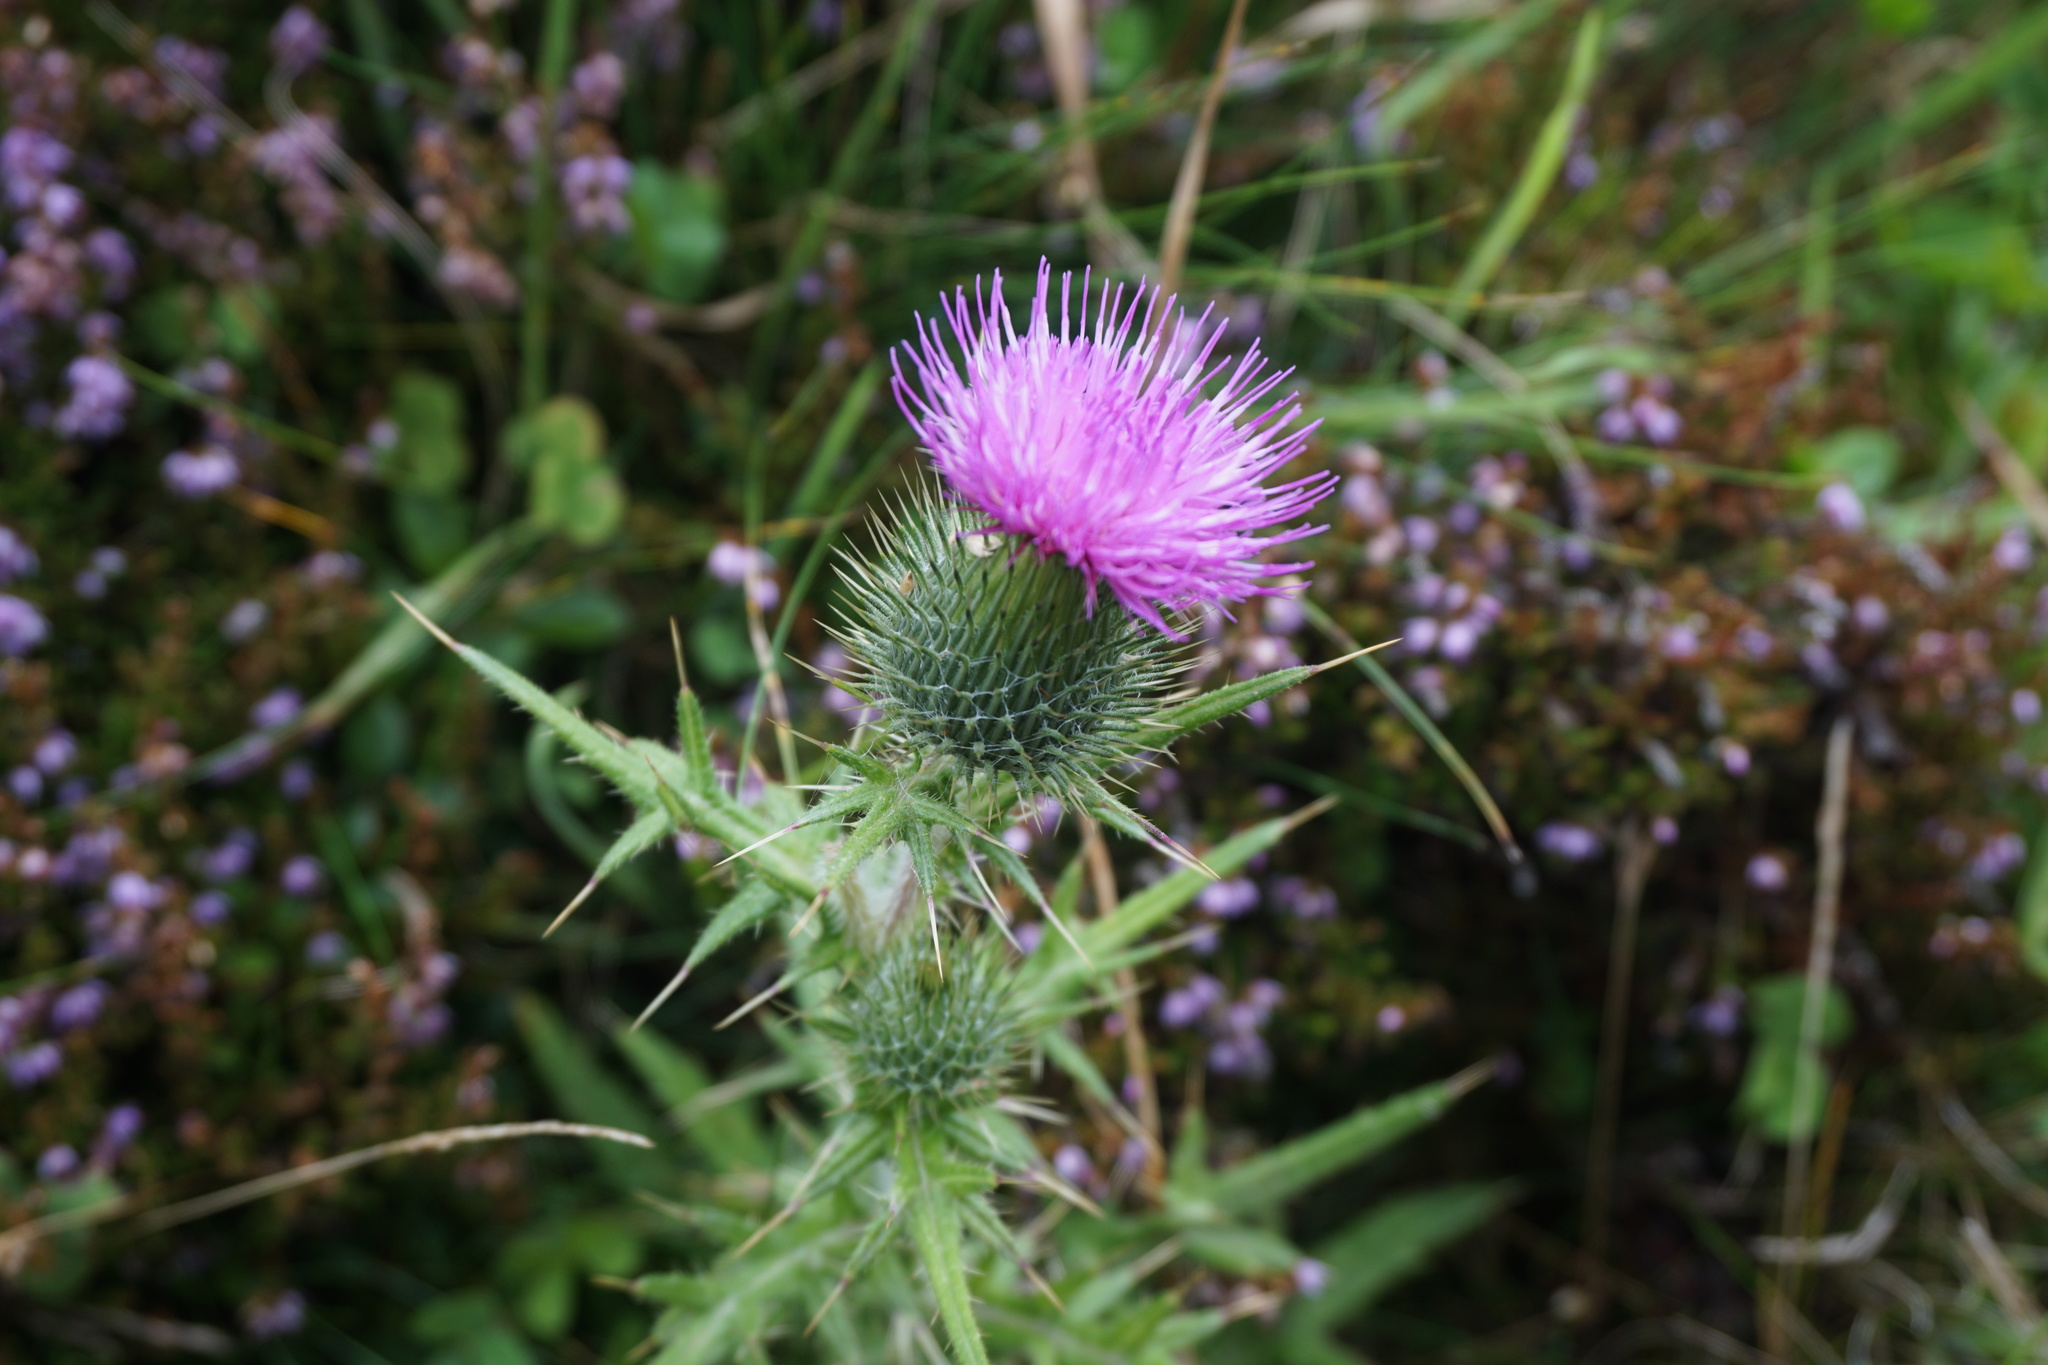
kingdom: Plantae
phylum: Tracheophyta
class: Magnoliopsida
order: Asterales
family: Asteraceae
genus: Cirsium
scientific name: Cirsium vulgare
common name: Bull thistle
